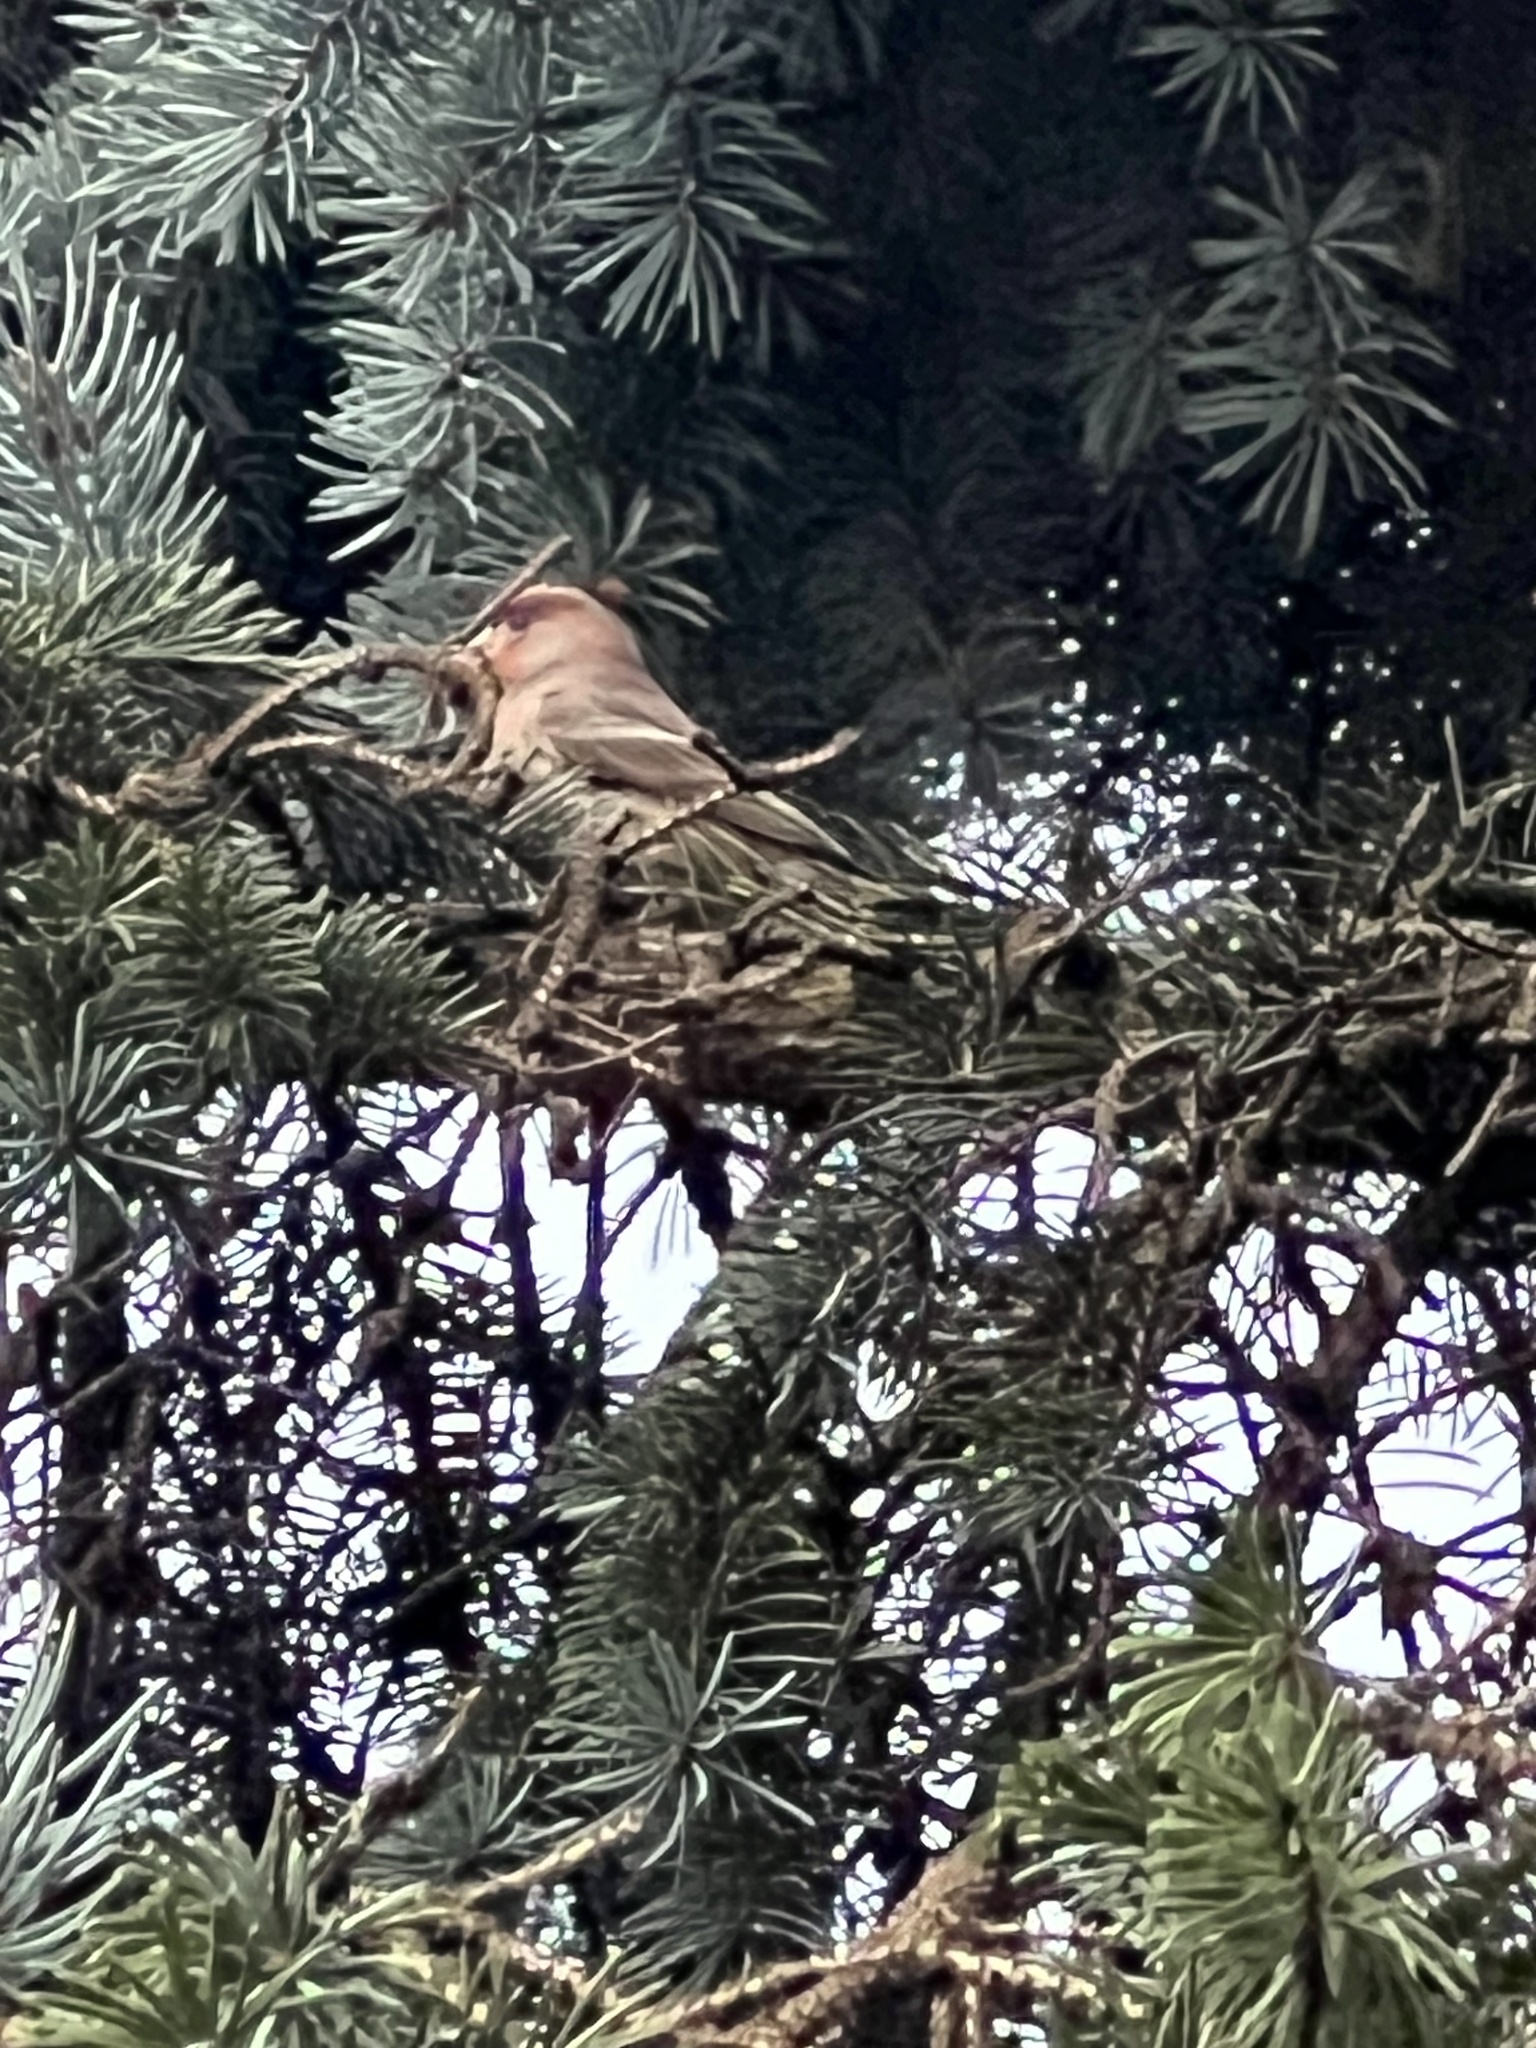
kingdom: Animalia
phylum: Chordata
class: Aves
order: Passeriformes
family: Fringillidae
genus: Haemorhous
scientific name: Haemorhous mexicanus
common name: House finch
